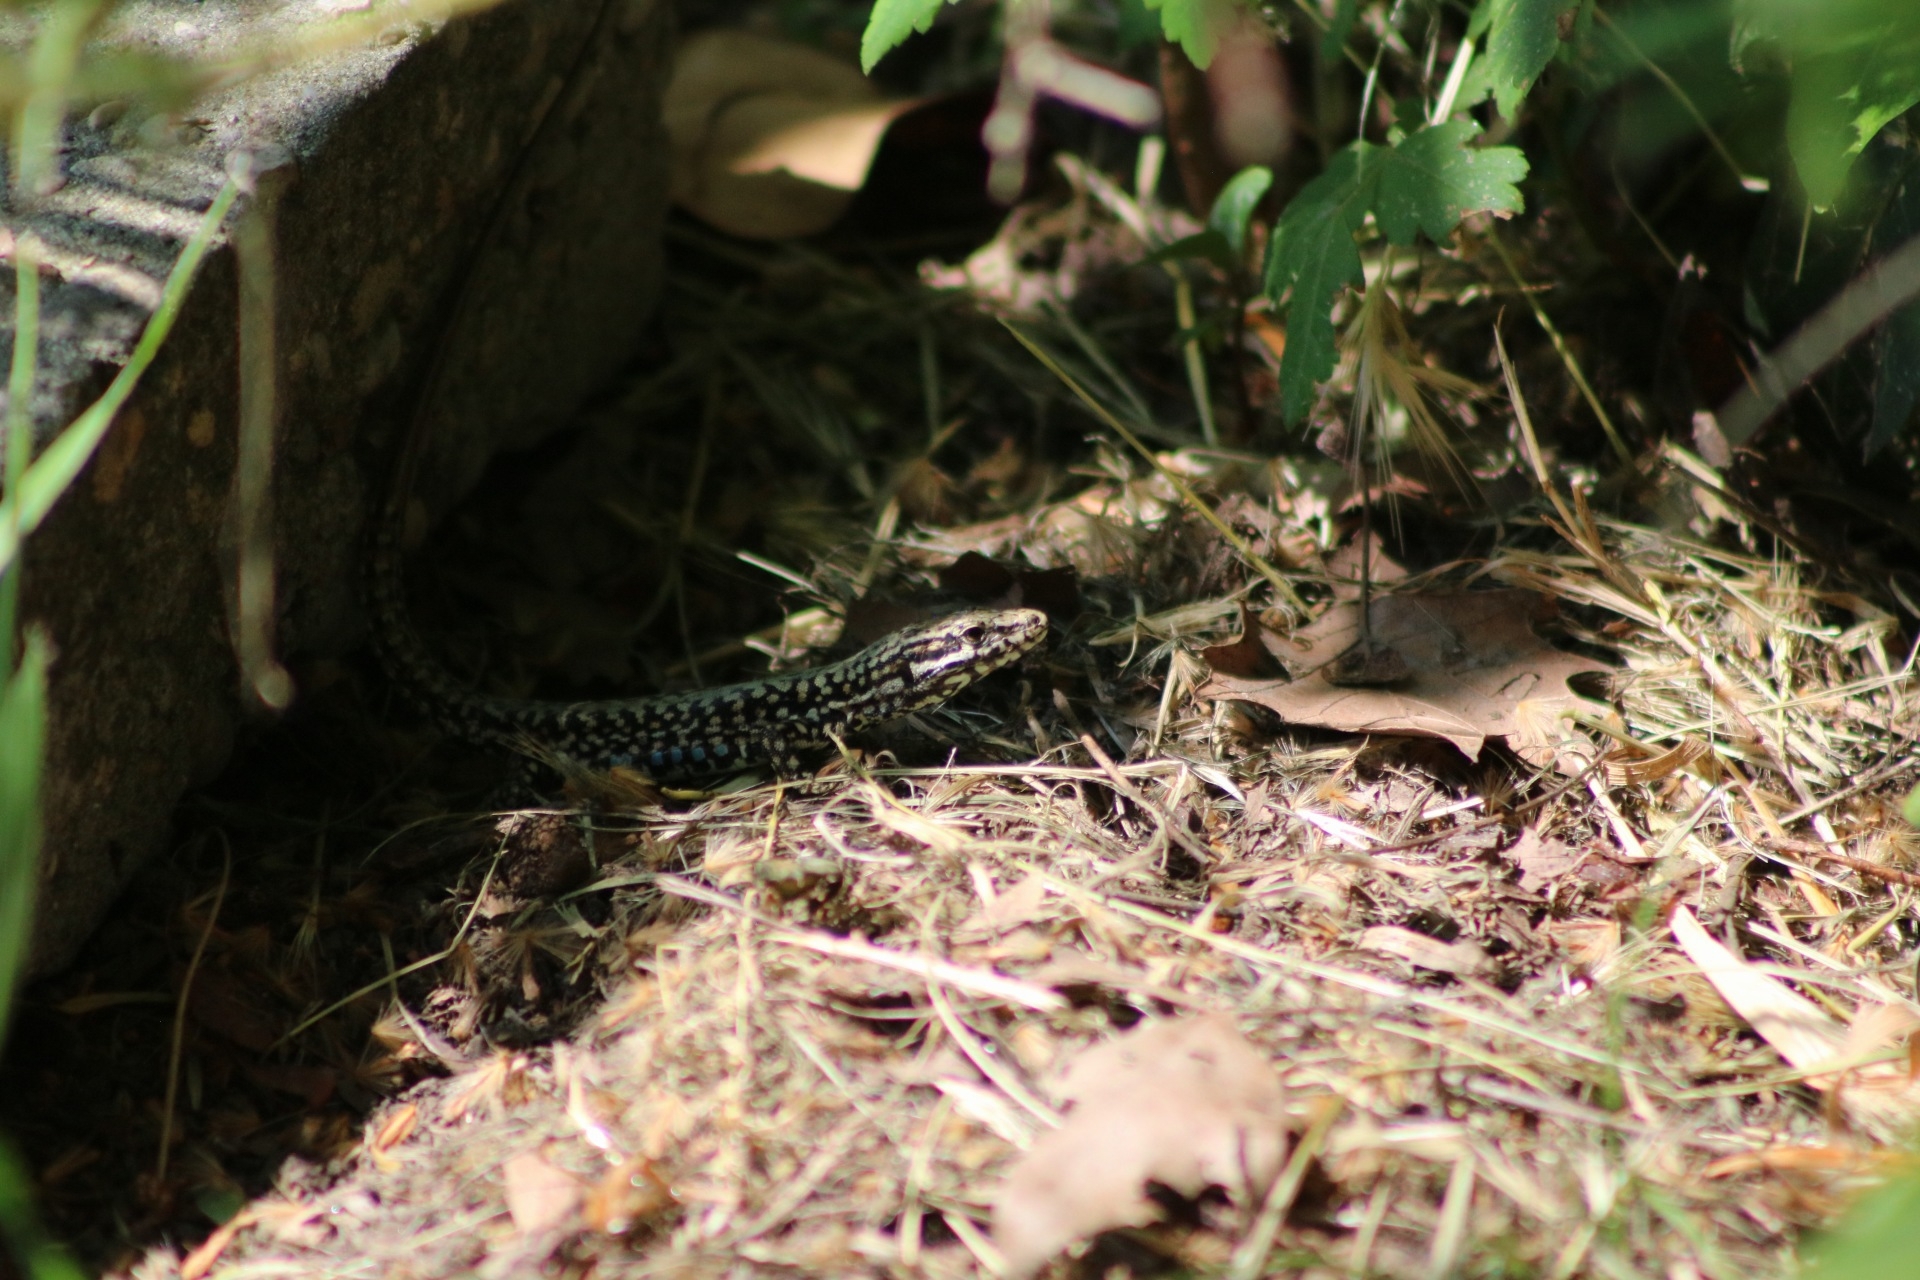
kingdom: Animalia
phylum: Chordata
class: Squamata
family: Lacertidae
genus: Podarcis
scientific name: Podarcis muralis
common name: Common wall lizard
